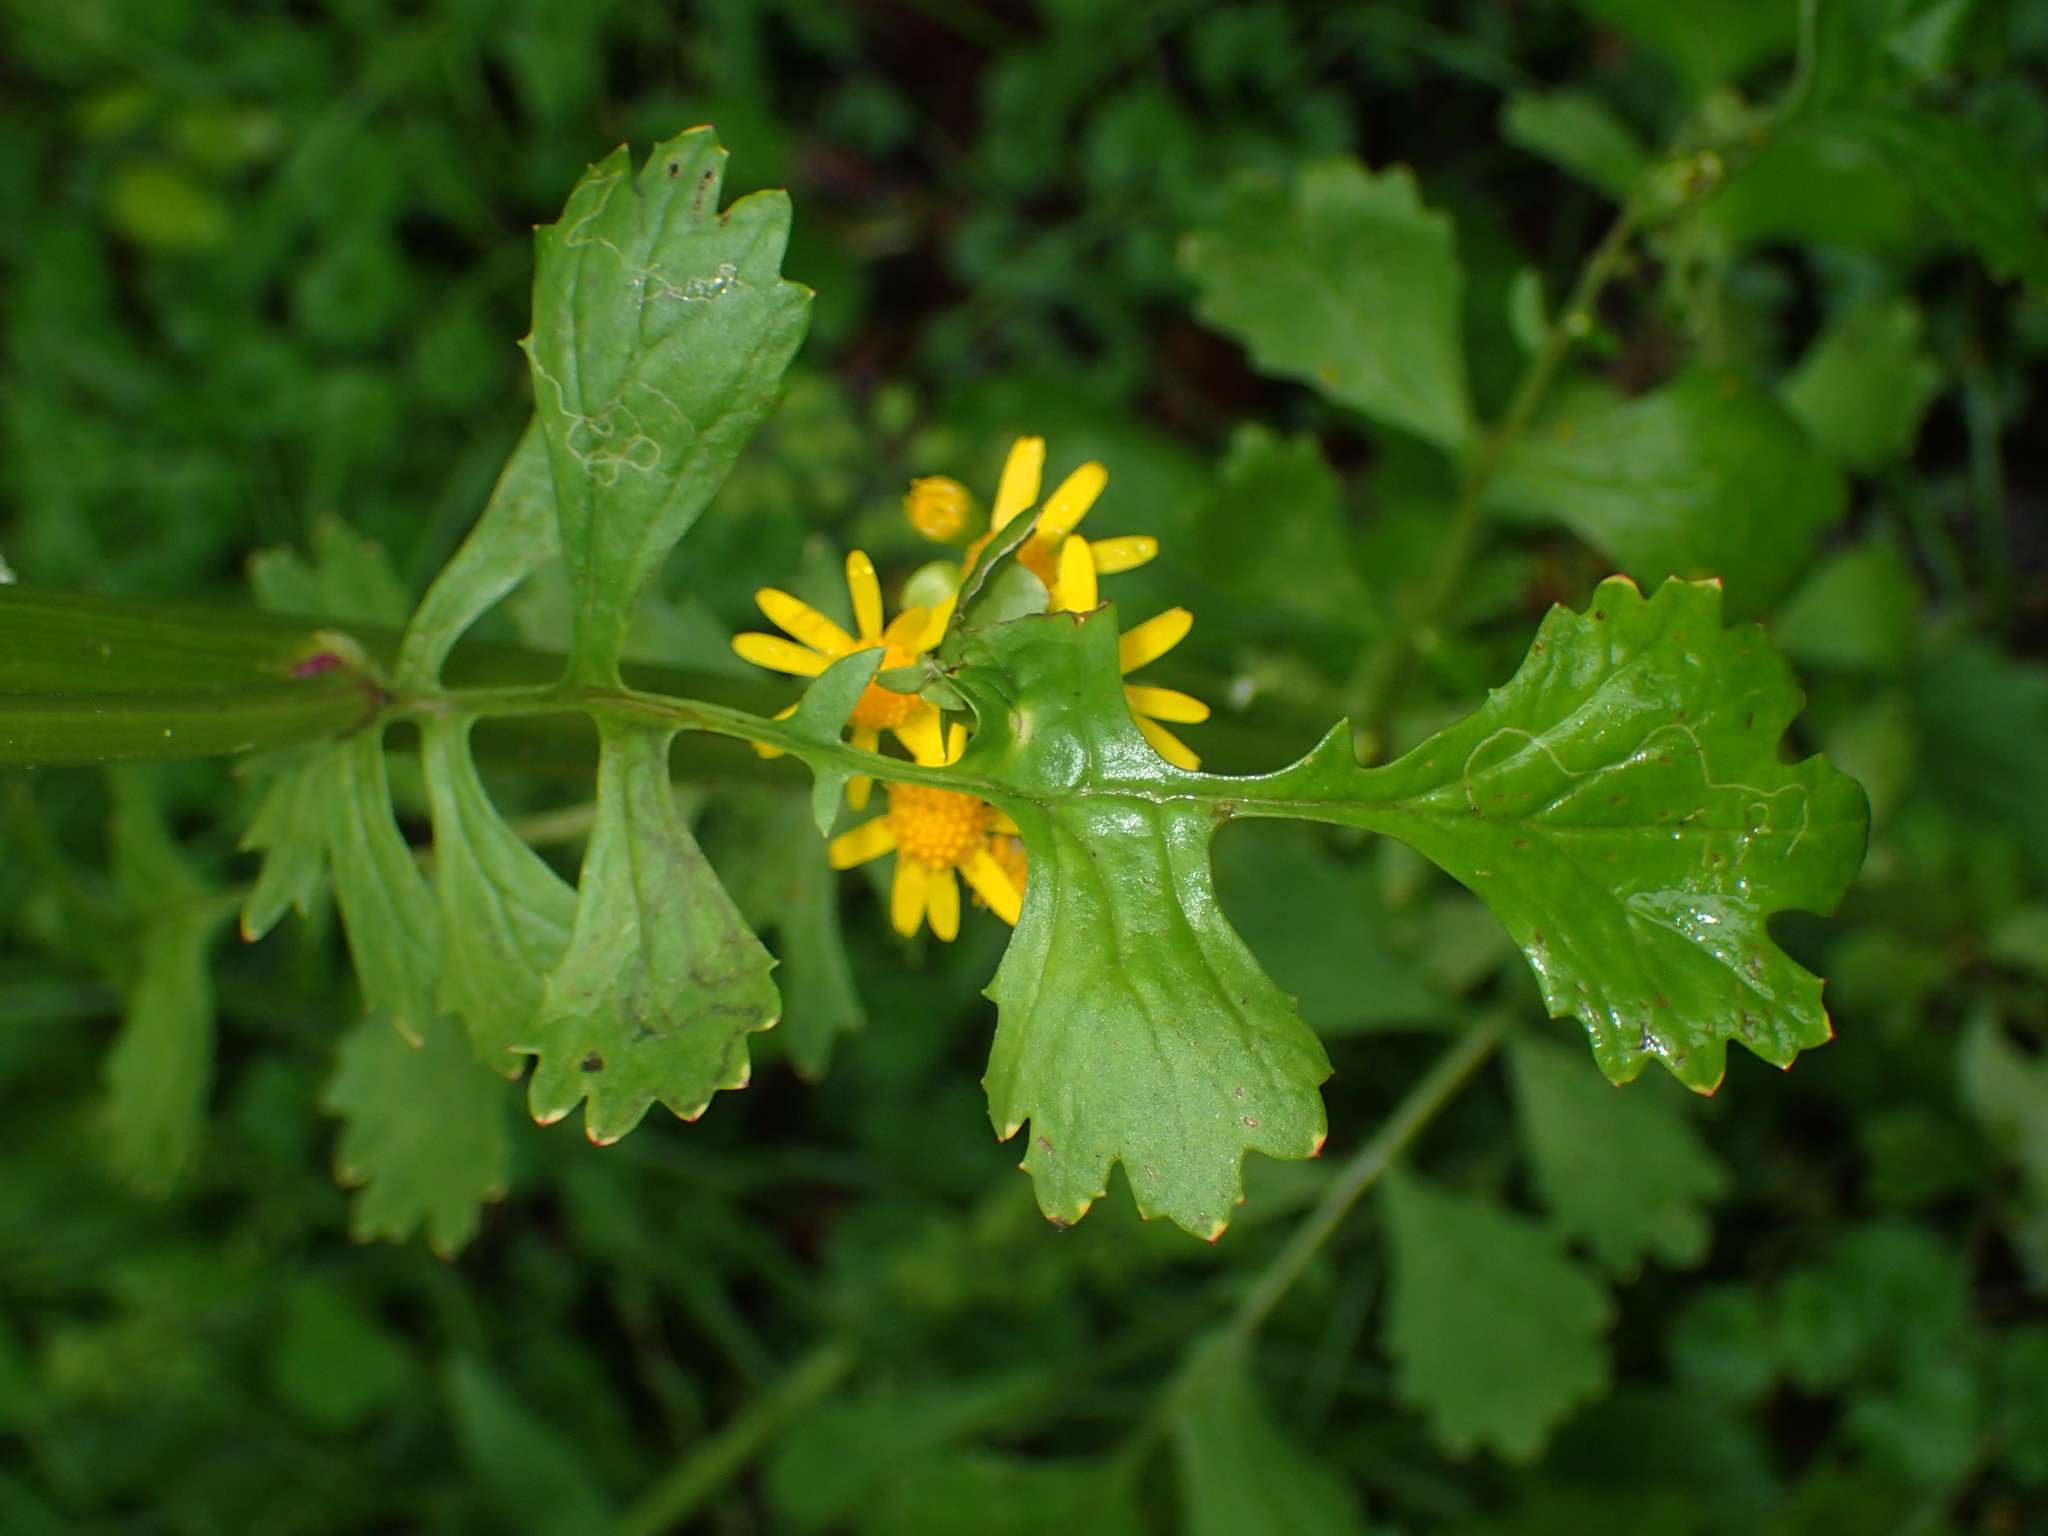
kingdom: Plantae
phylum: Tracheophyta
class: Magnoliopsida
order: Asterales
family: Asteraceae
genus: Packera
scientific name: Packera glabella
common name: Butterweed
